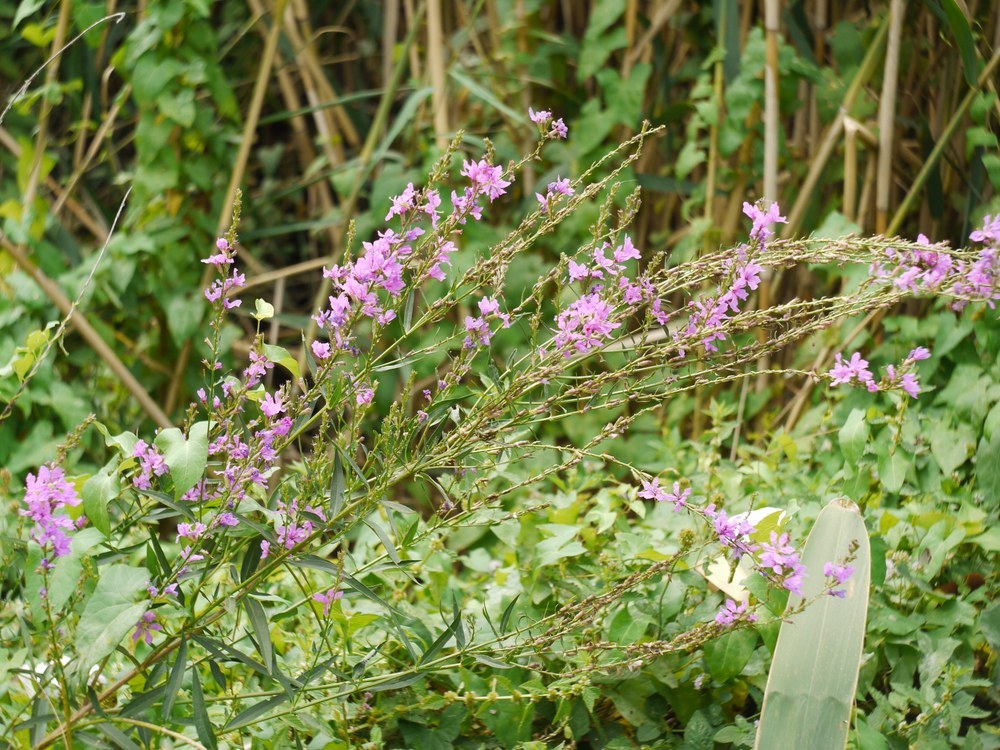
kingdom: Plantae
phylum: Tracheophyta
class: Magnoliopsida
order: Myrtales
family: Lythraceae
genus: Lythrum
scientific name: Lythrum salicaria
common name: Purple loosestrife
